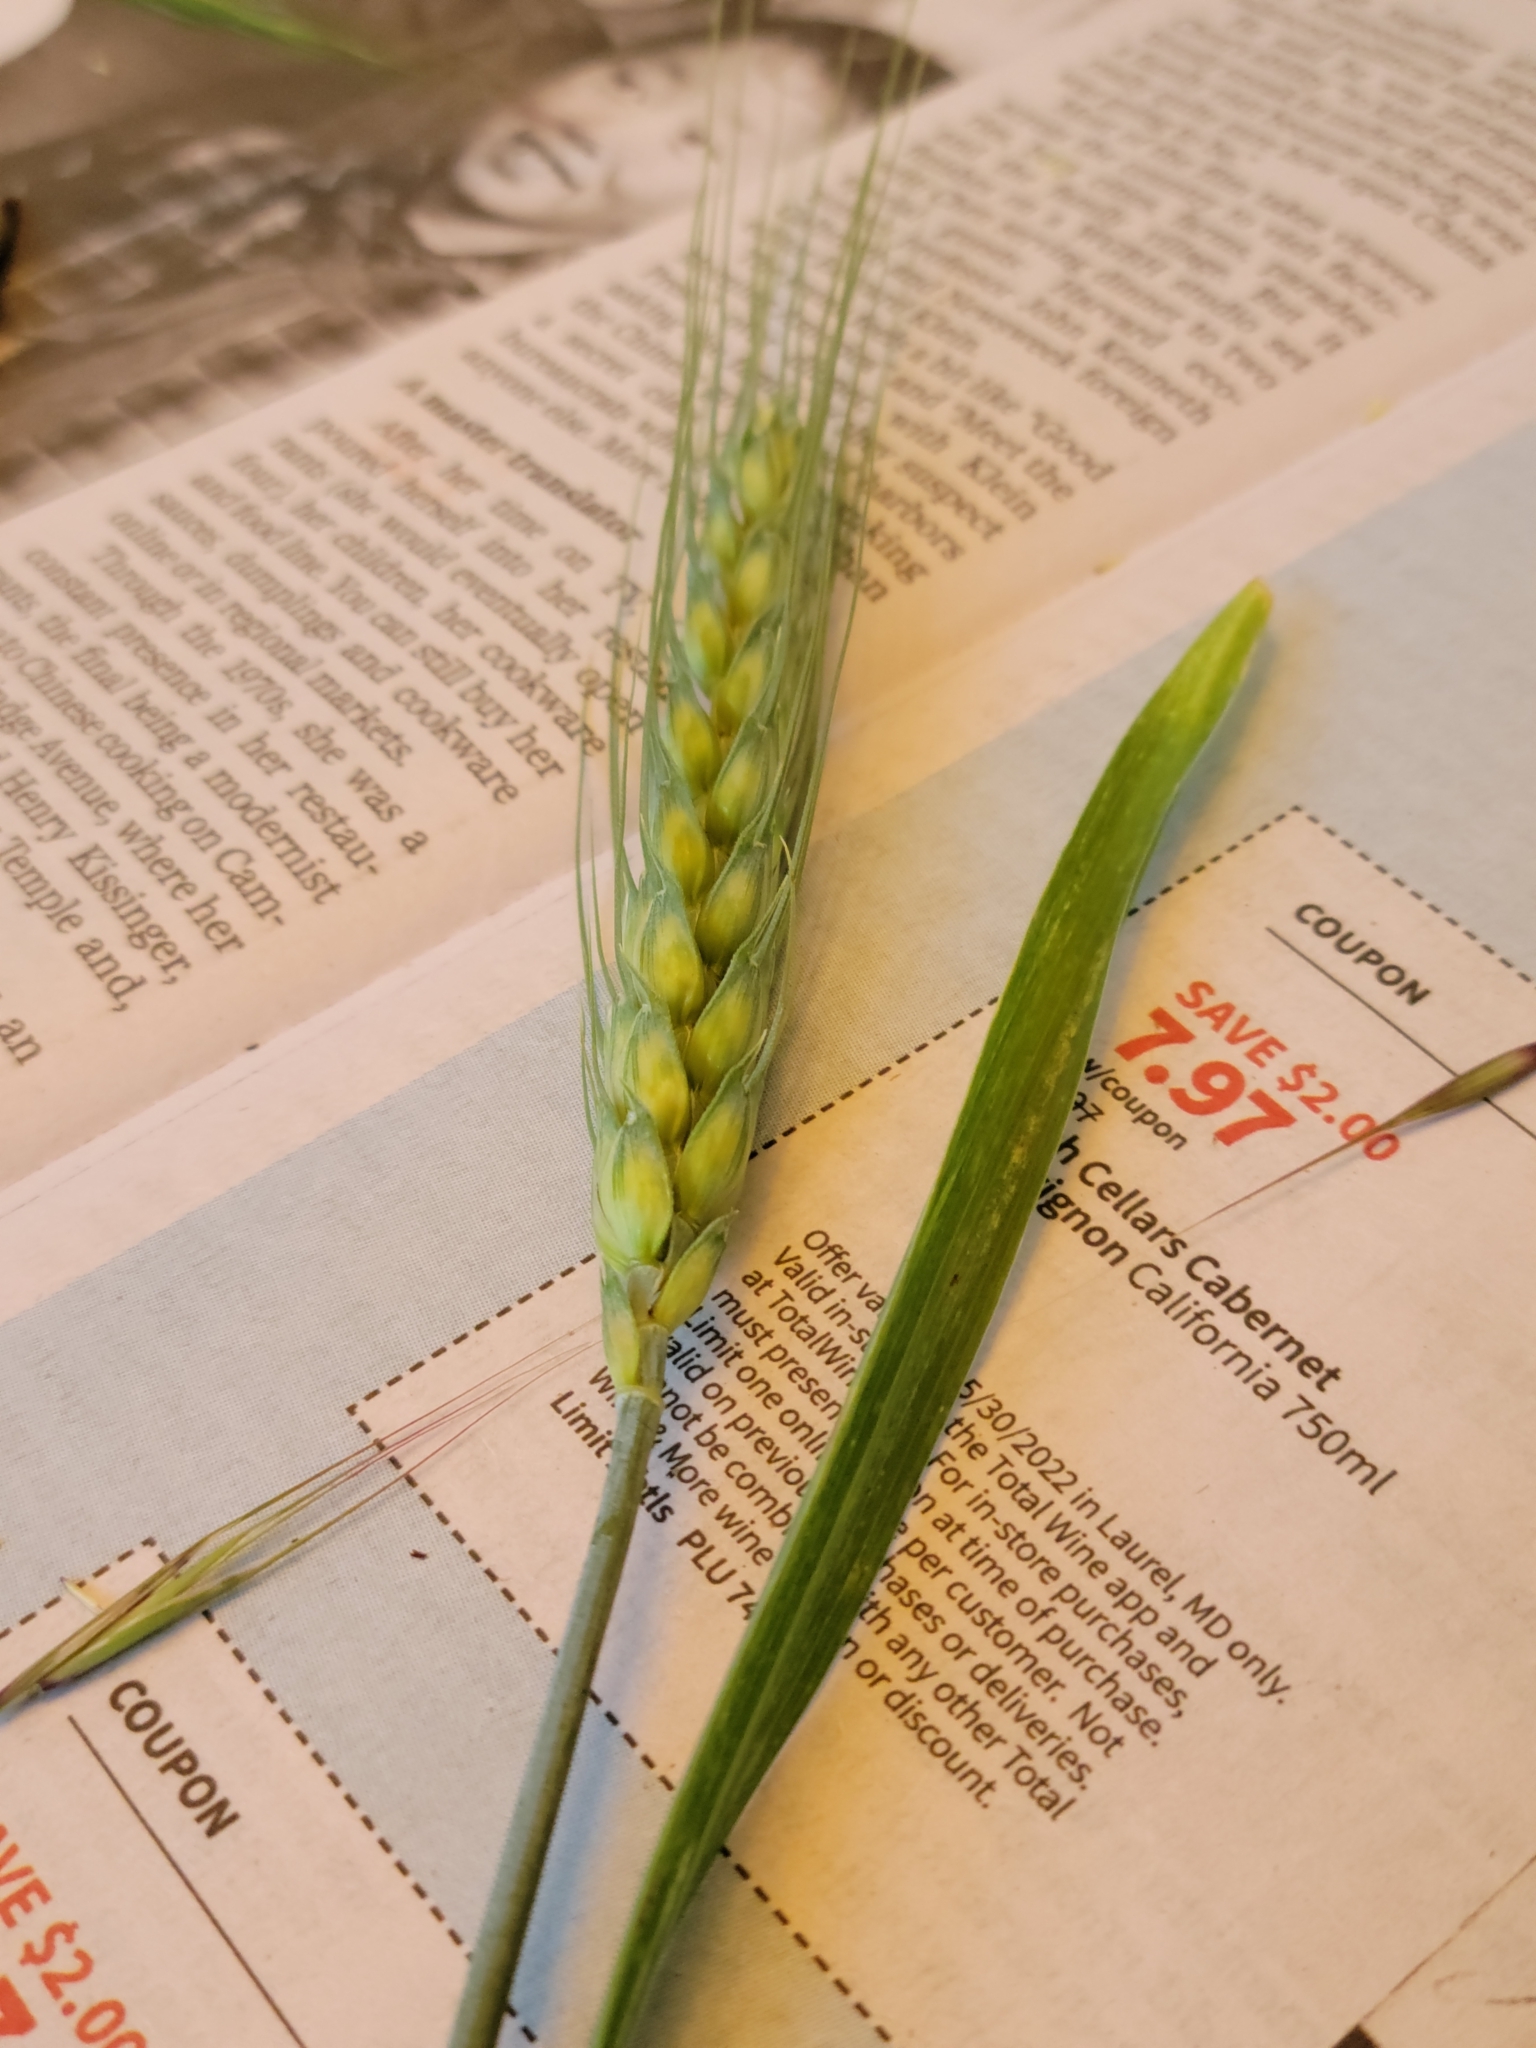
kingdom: Plantae
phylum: Tracheophyta
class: Liliopsida
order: Poales
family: Poaceae
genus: Triticum
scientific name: Triticum aestivum
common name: Common wheat
